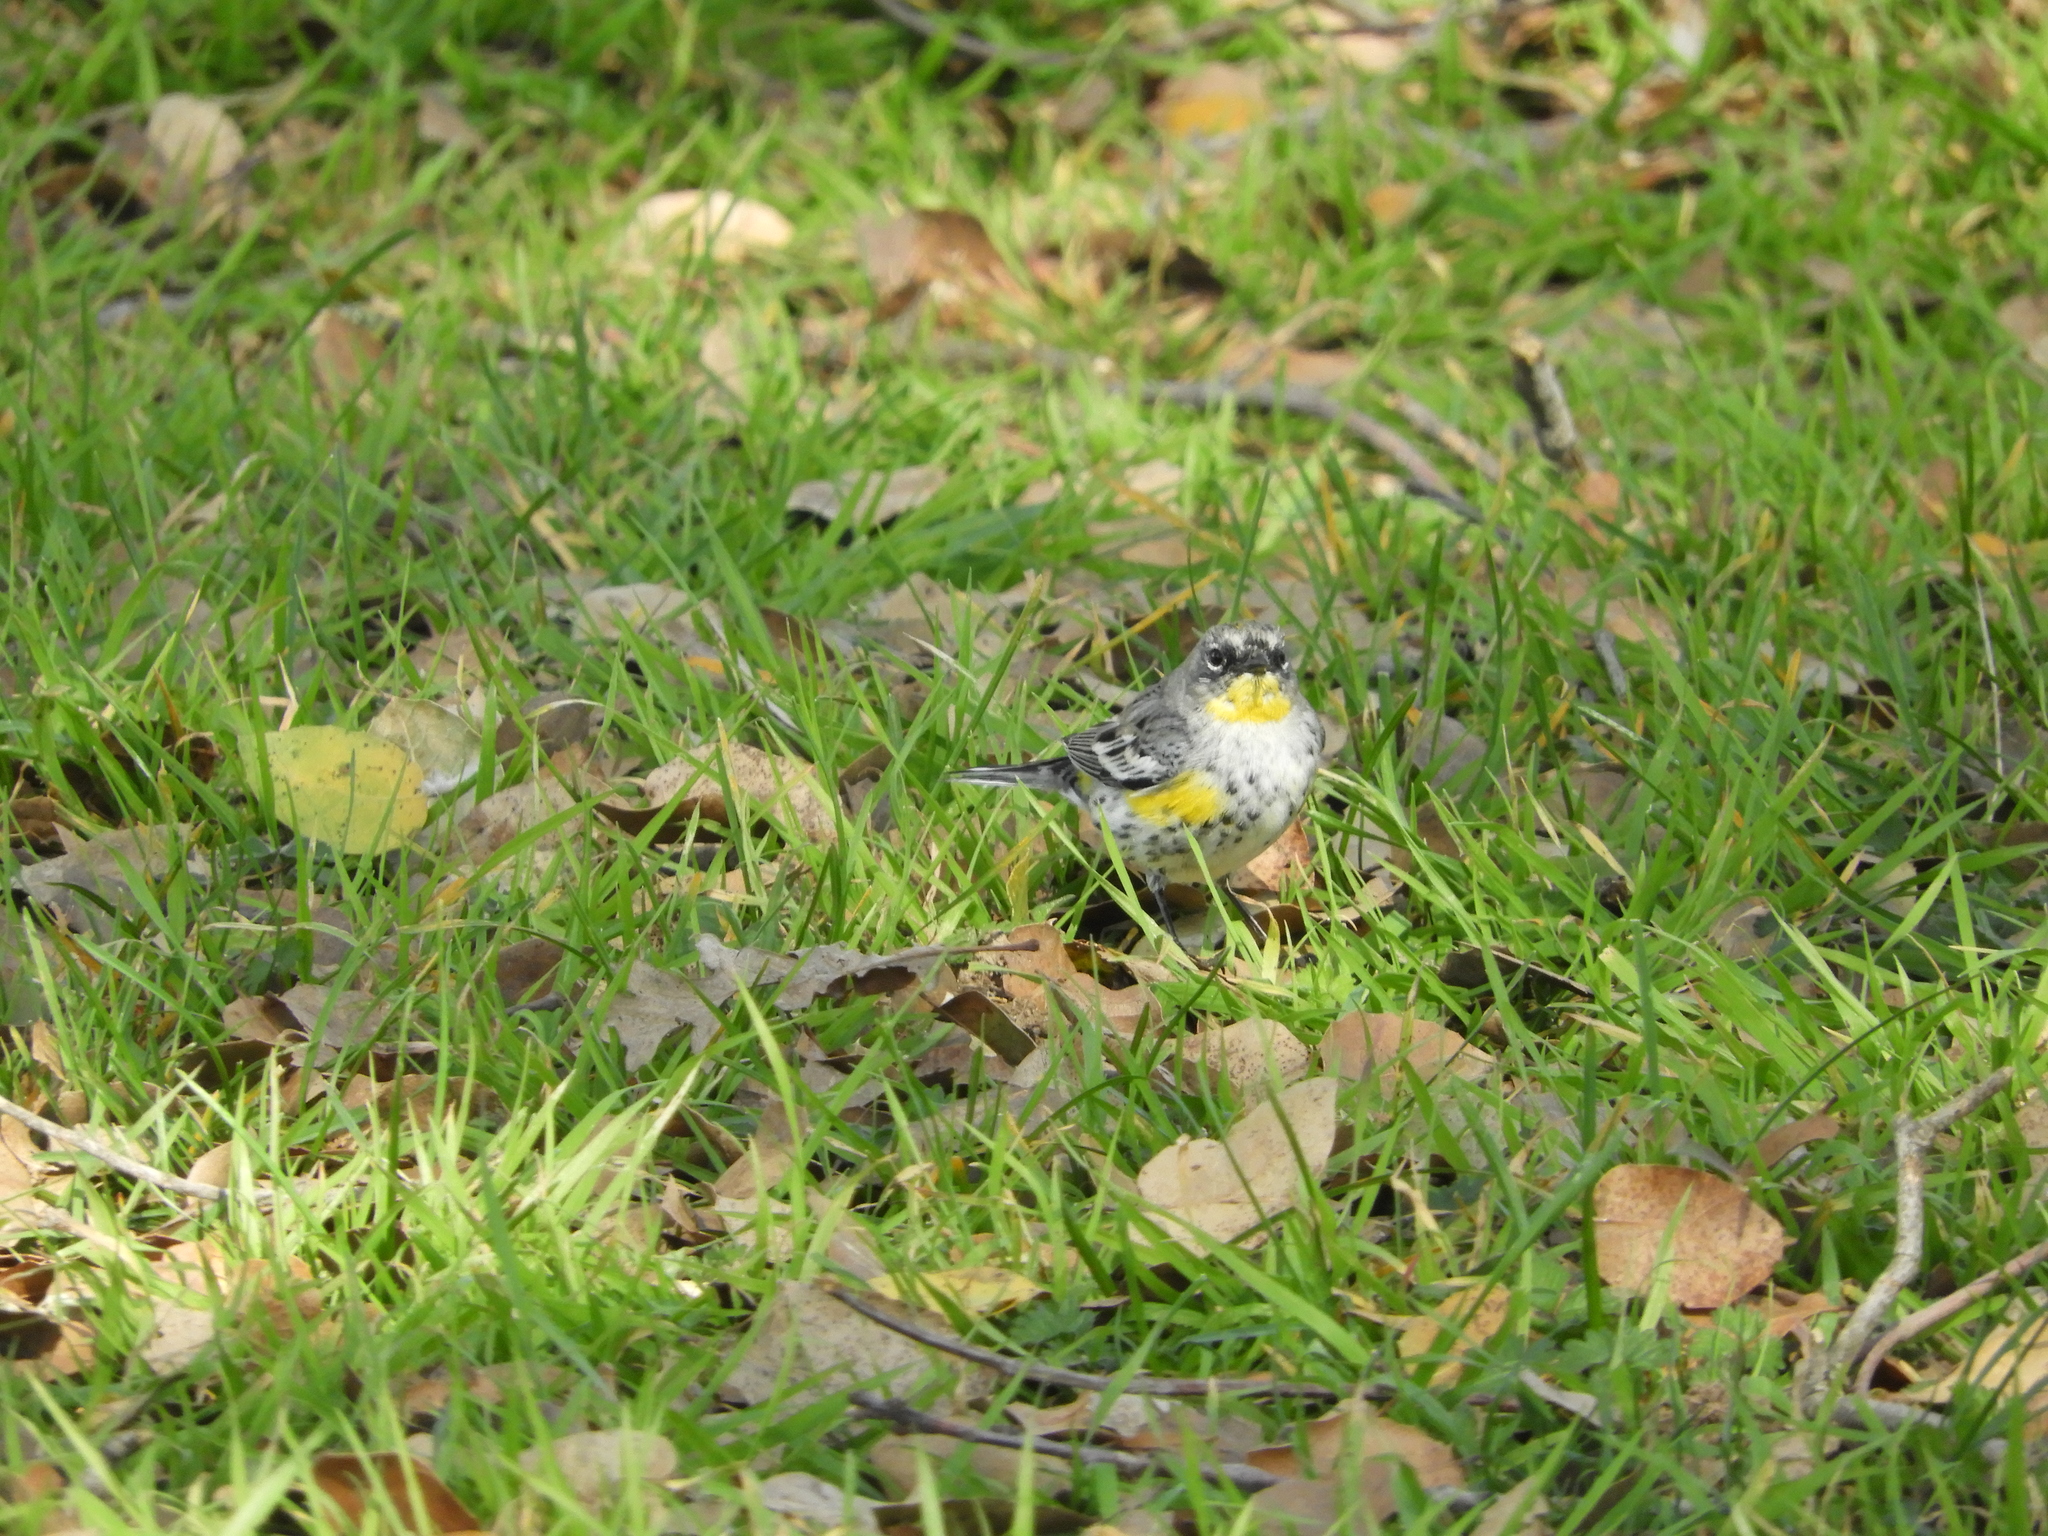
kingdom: Animalia
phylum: Chordata
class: Aves
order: Passeriformes
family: Parulidae
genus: Setophaga
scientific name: Setophaga auduboni
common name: Audubon's warbler
